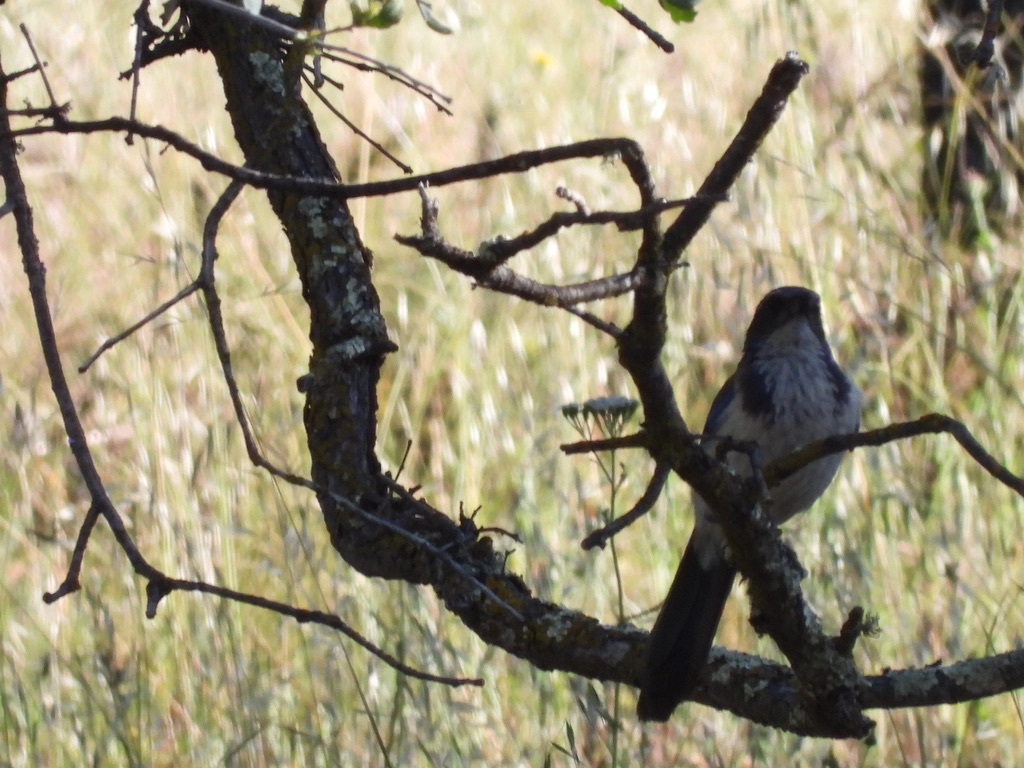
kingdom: Animalia
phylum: Chordata
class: Aves
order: Passeriformes
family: Corvidae
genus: Aphelocoma
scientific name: Aphelocoma californica
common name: California scrub-jay
